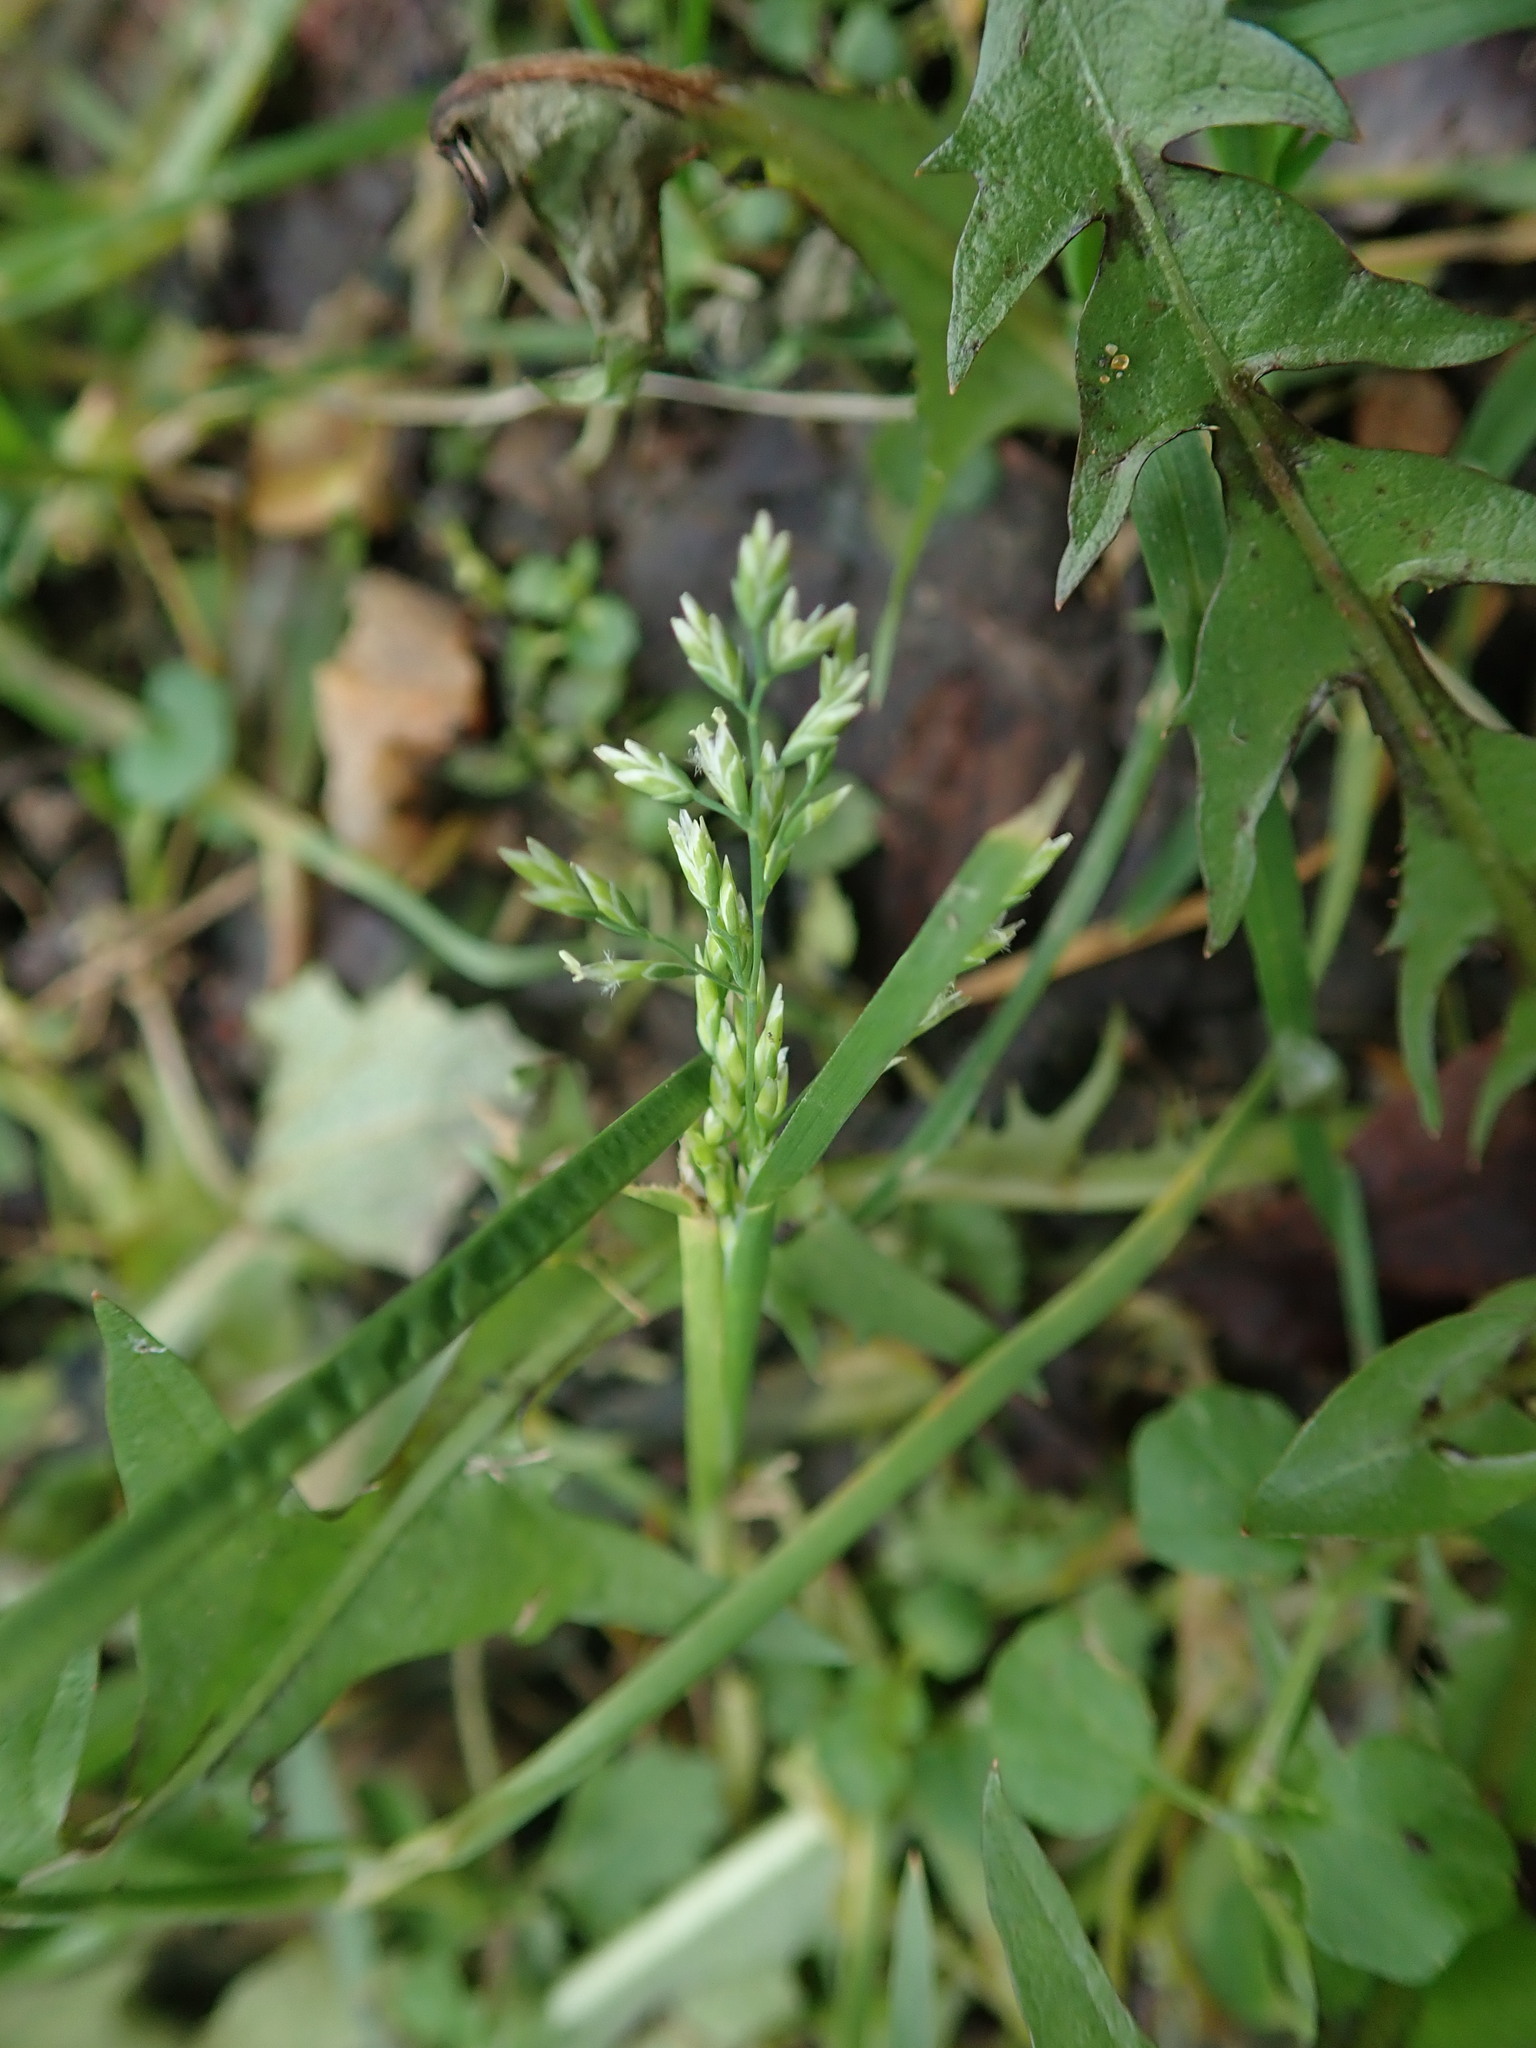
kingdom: Plantae
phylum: Tracheophyta
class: Liliopsida
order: Poales
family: Poaceae
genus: Poa
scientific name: Poa annua
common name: Annual bluegrass
